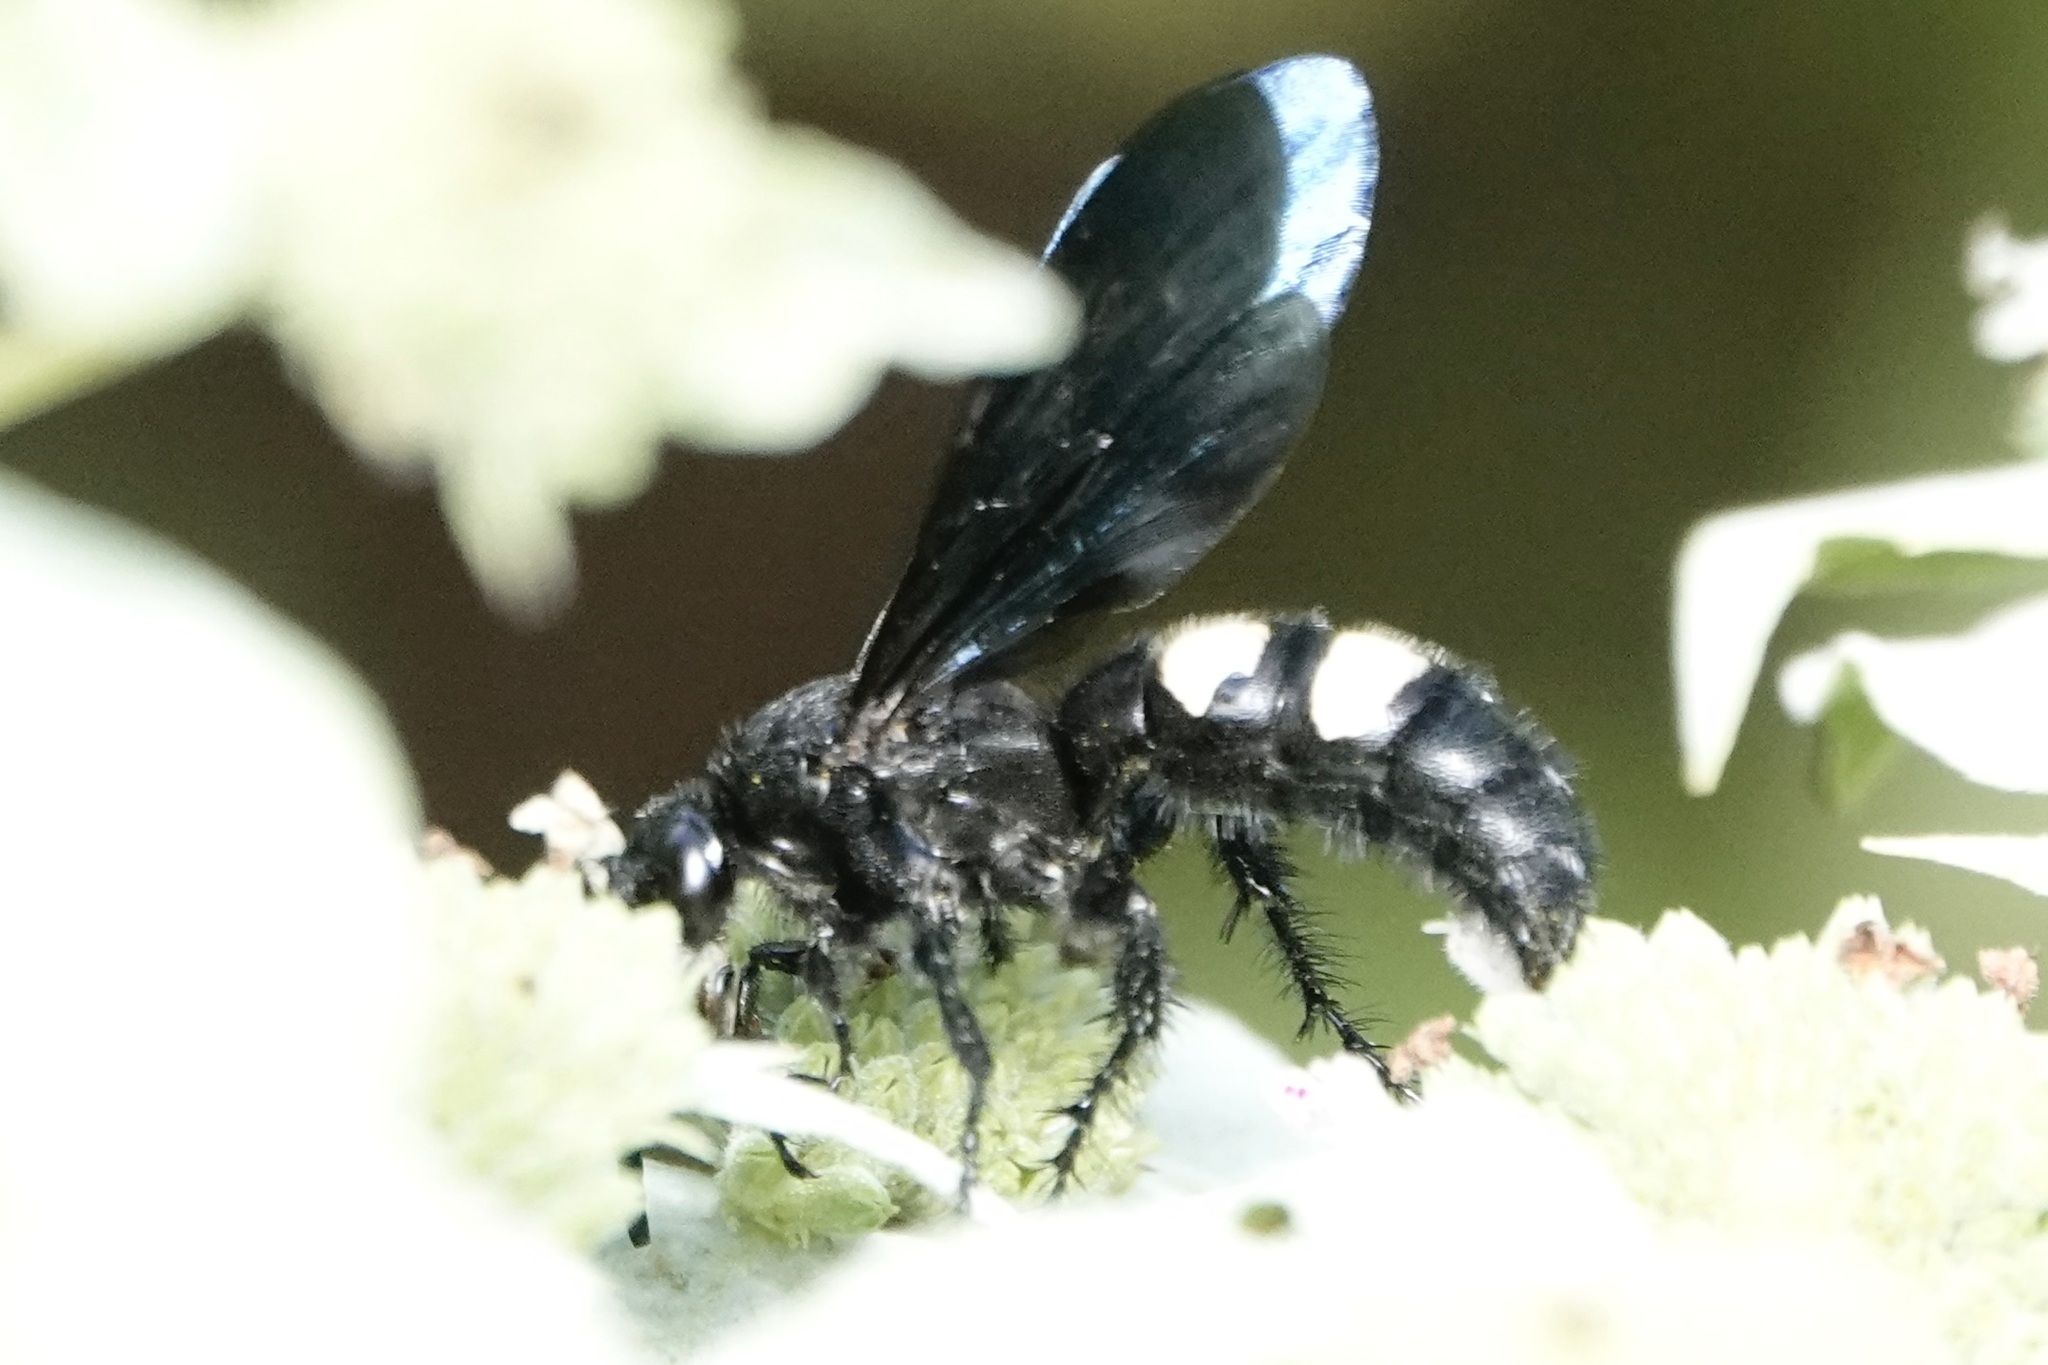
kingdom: Animalia
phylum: Arthropoda
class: Insecta
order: Hymenoptera
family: Scoliidae
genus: Scolia
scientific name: Scolia bicincta
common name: Double-banded scoliid wasp
